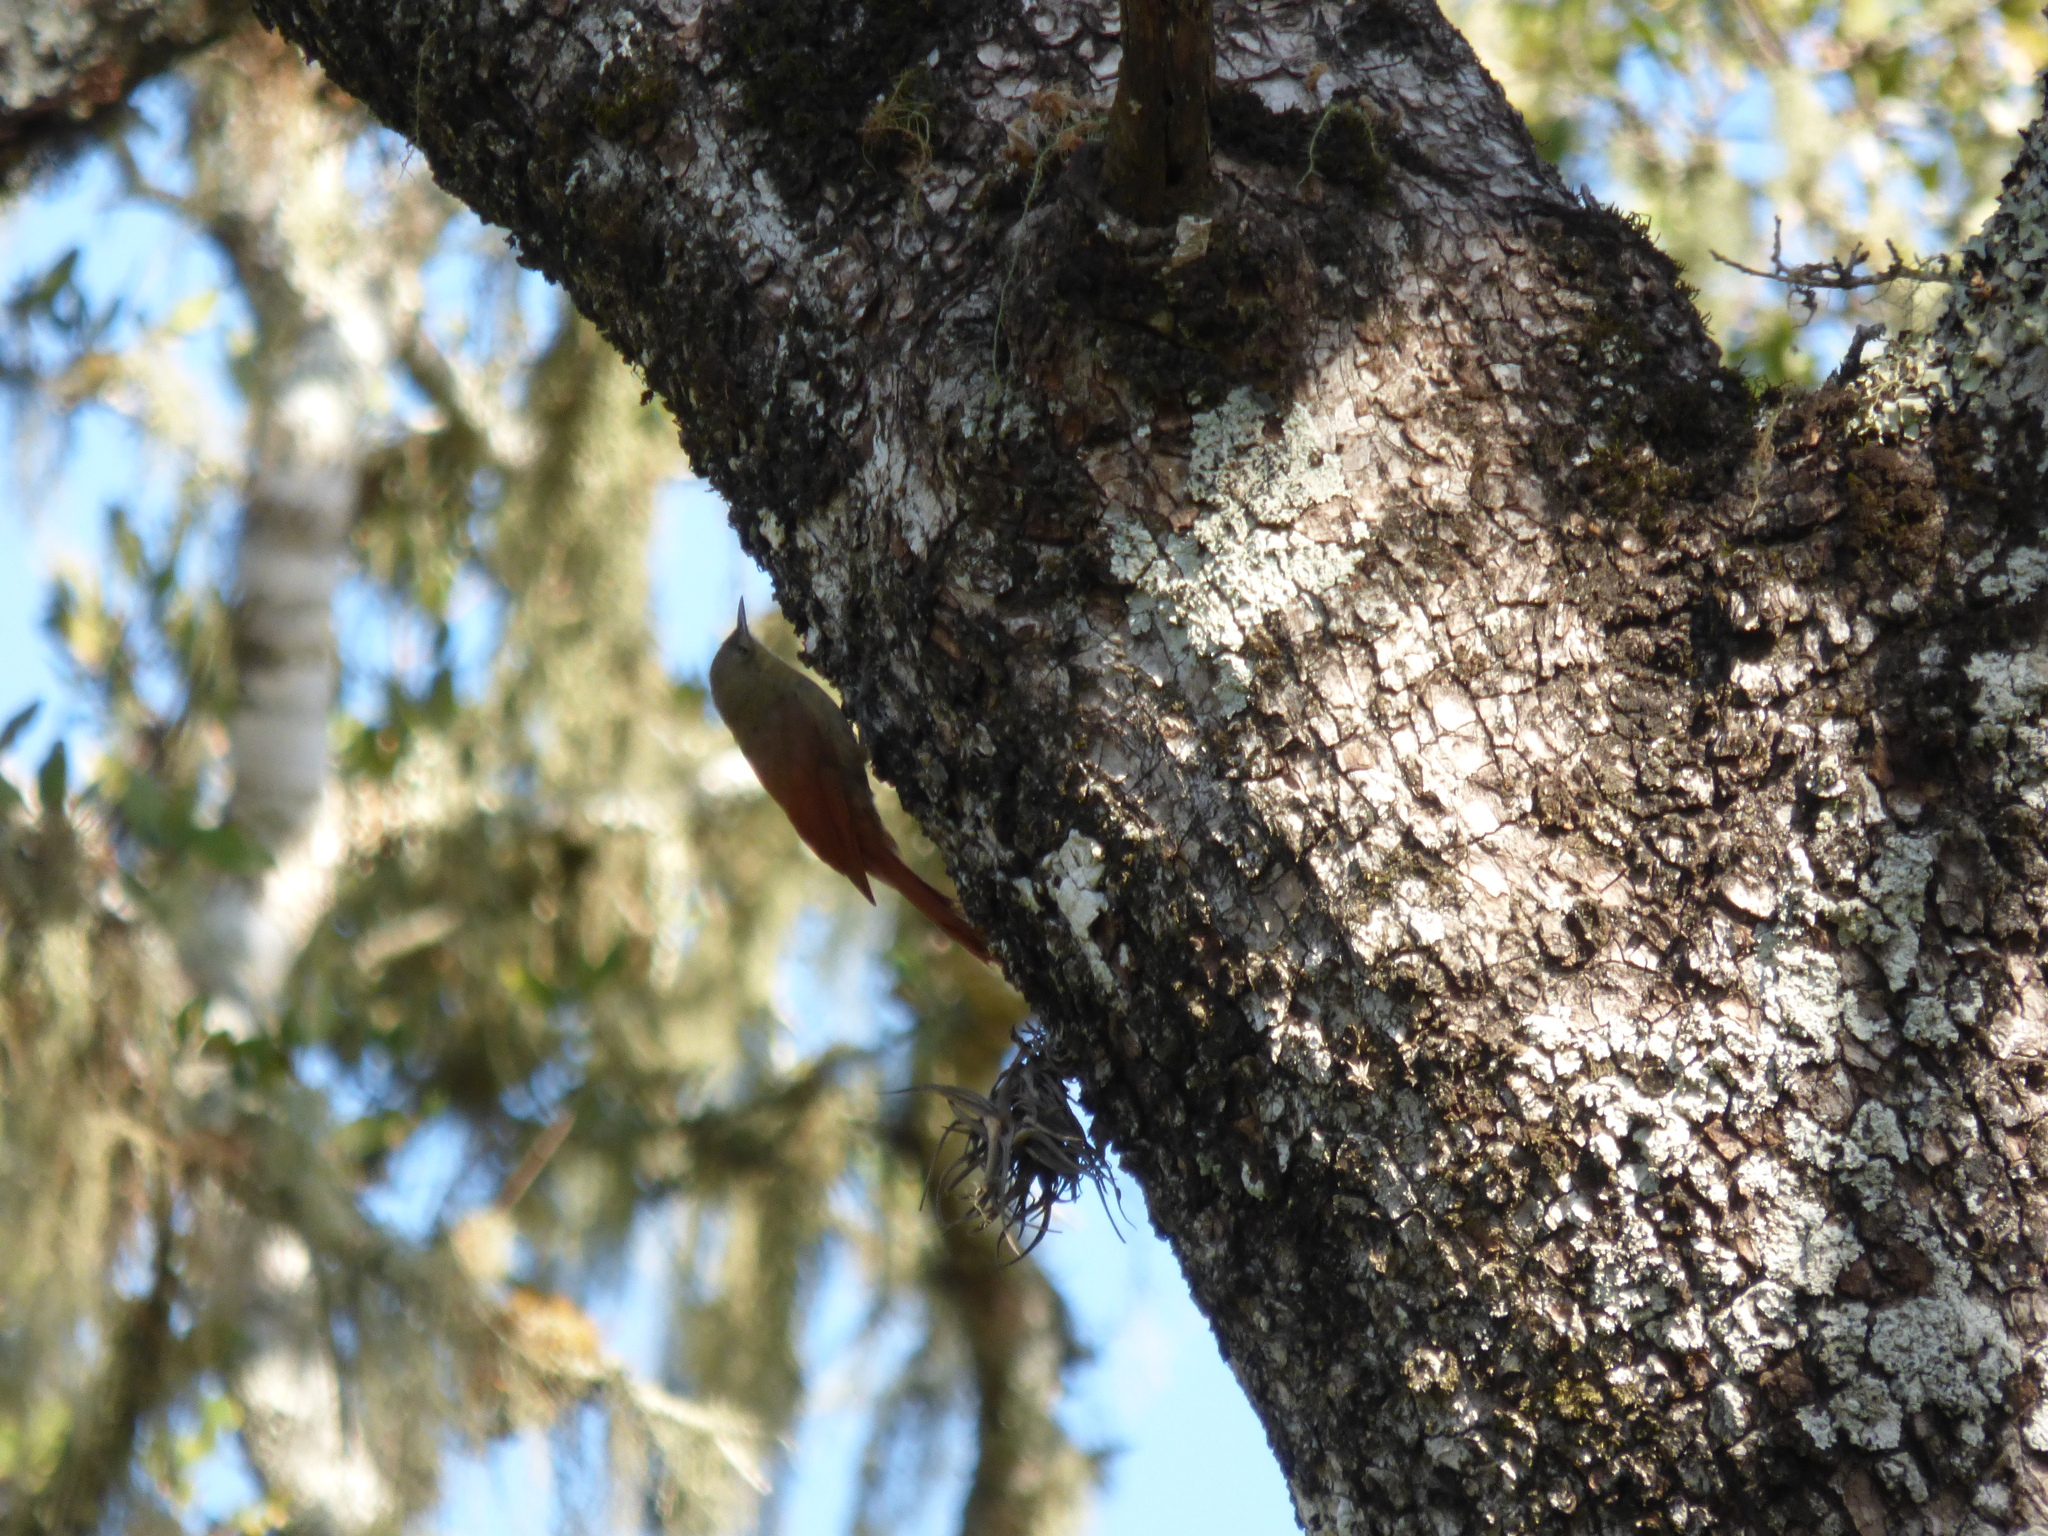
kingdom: Animalia
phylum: Chordata
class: Aves
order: Passeriformes
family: Furnariidae
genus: Sittasomus
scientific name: Sittasomus griseicapillus
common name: Olivaceous woodcreeper
